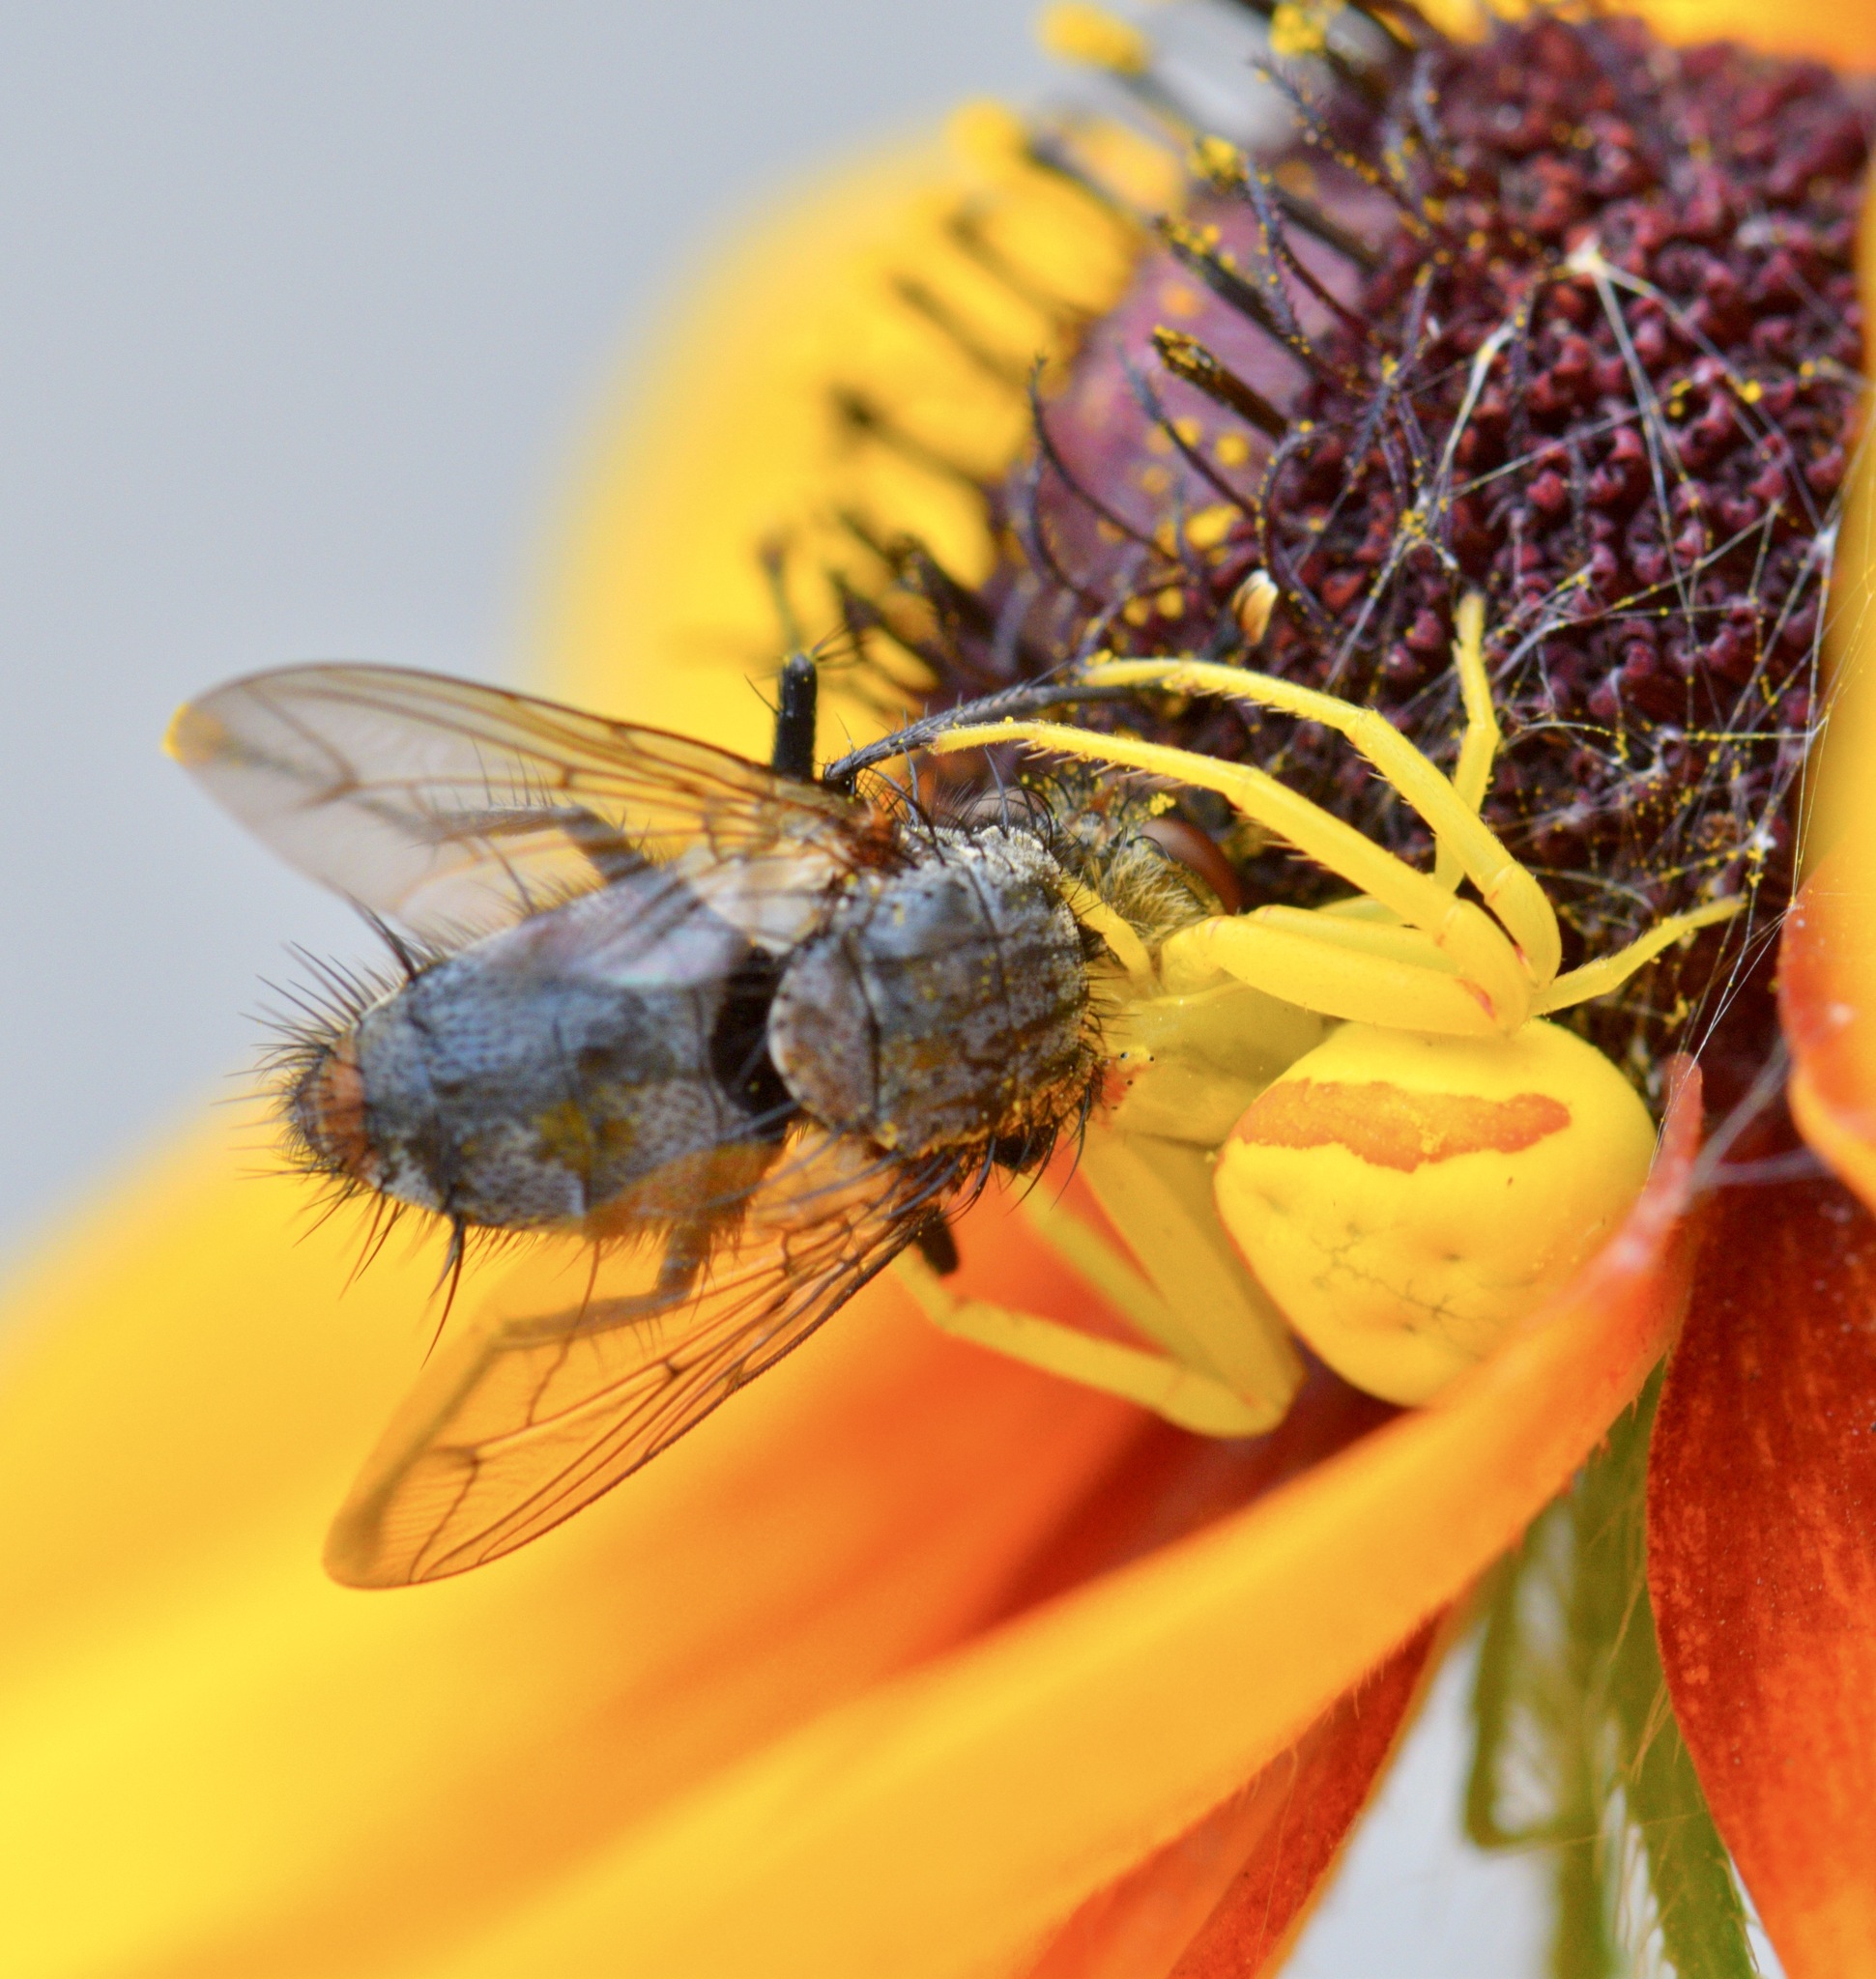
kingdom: Animalia
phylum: Arthropoda
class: Arachnida
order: Araneae
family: Thomisidae
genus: Misumena
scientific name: Misumena vatia
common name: Goldenrod crab spider
